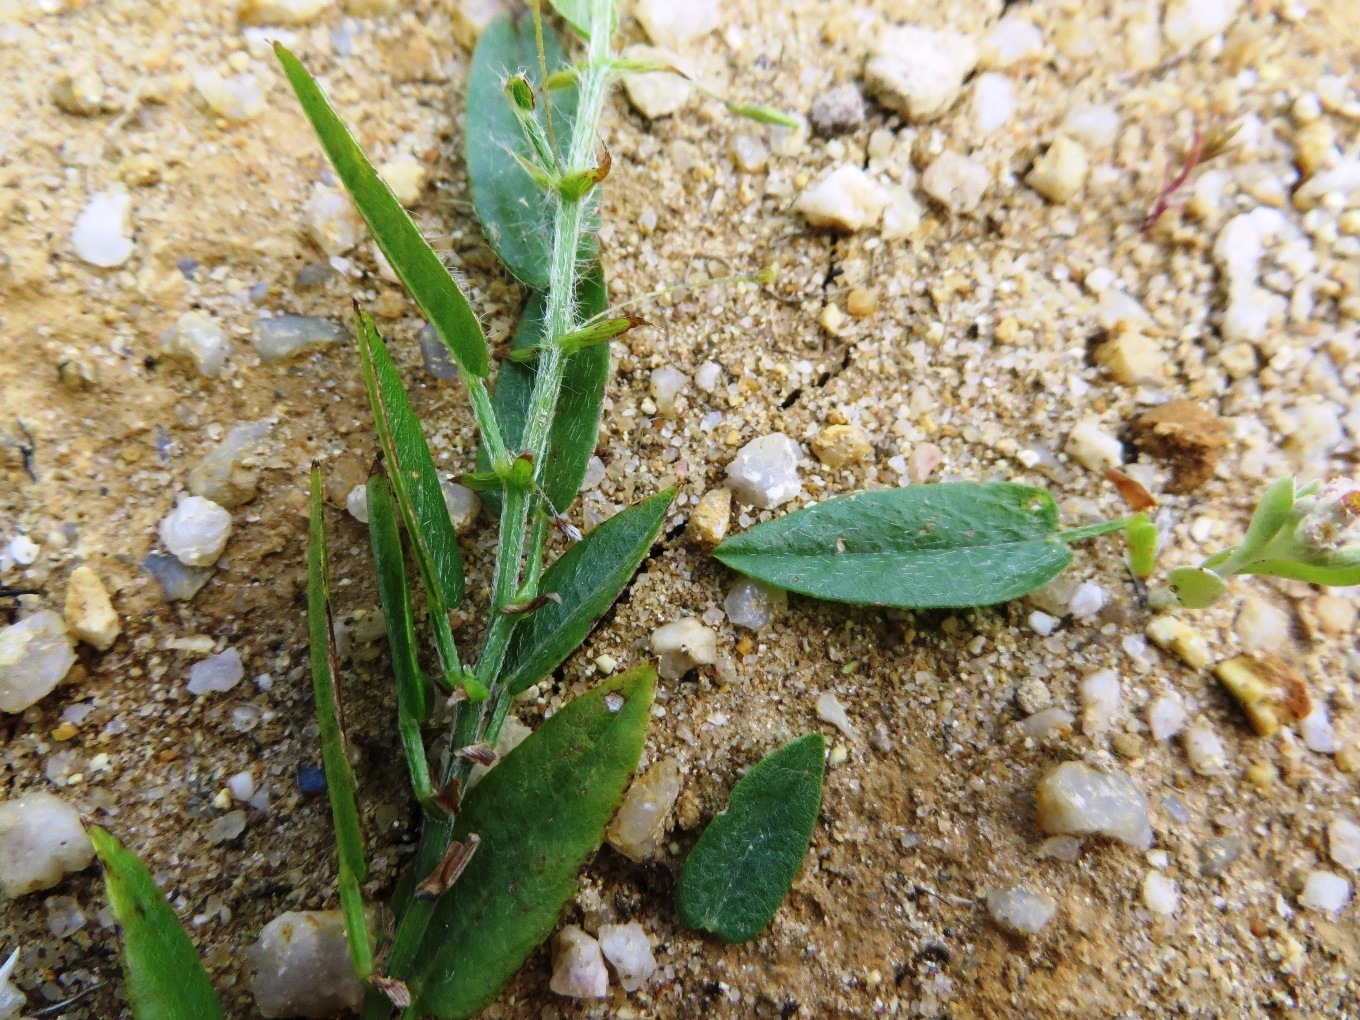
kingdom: Plantae
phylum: Tracheophyta
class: Magnoliopsida
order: Fabales
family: Fabaceae
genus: Psoralea
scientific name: Psoralea monophylla
